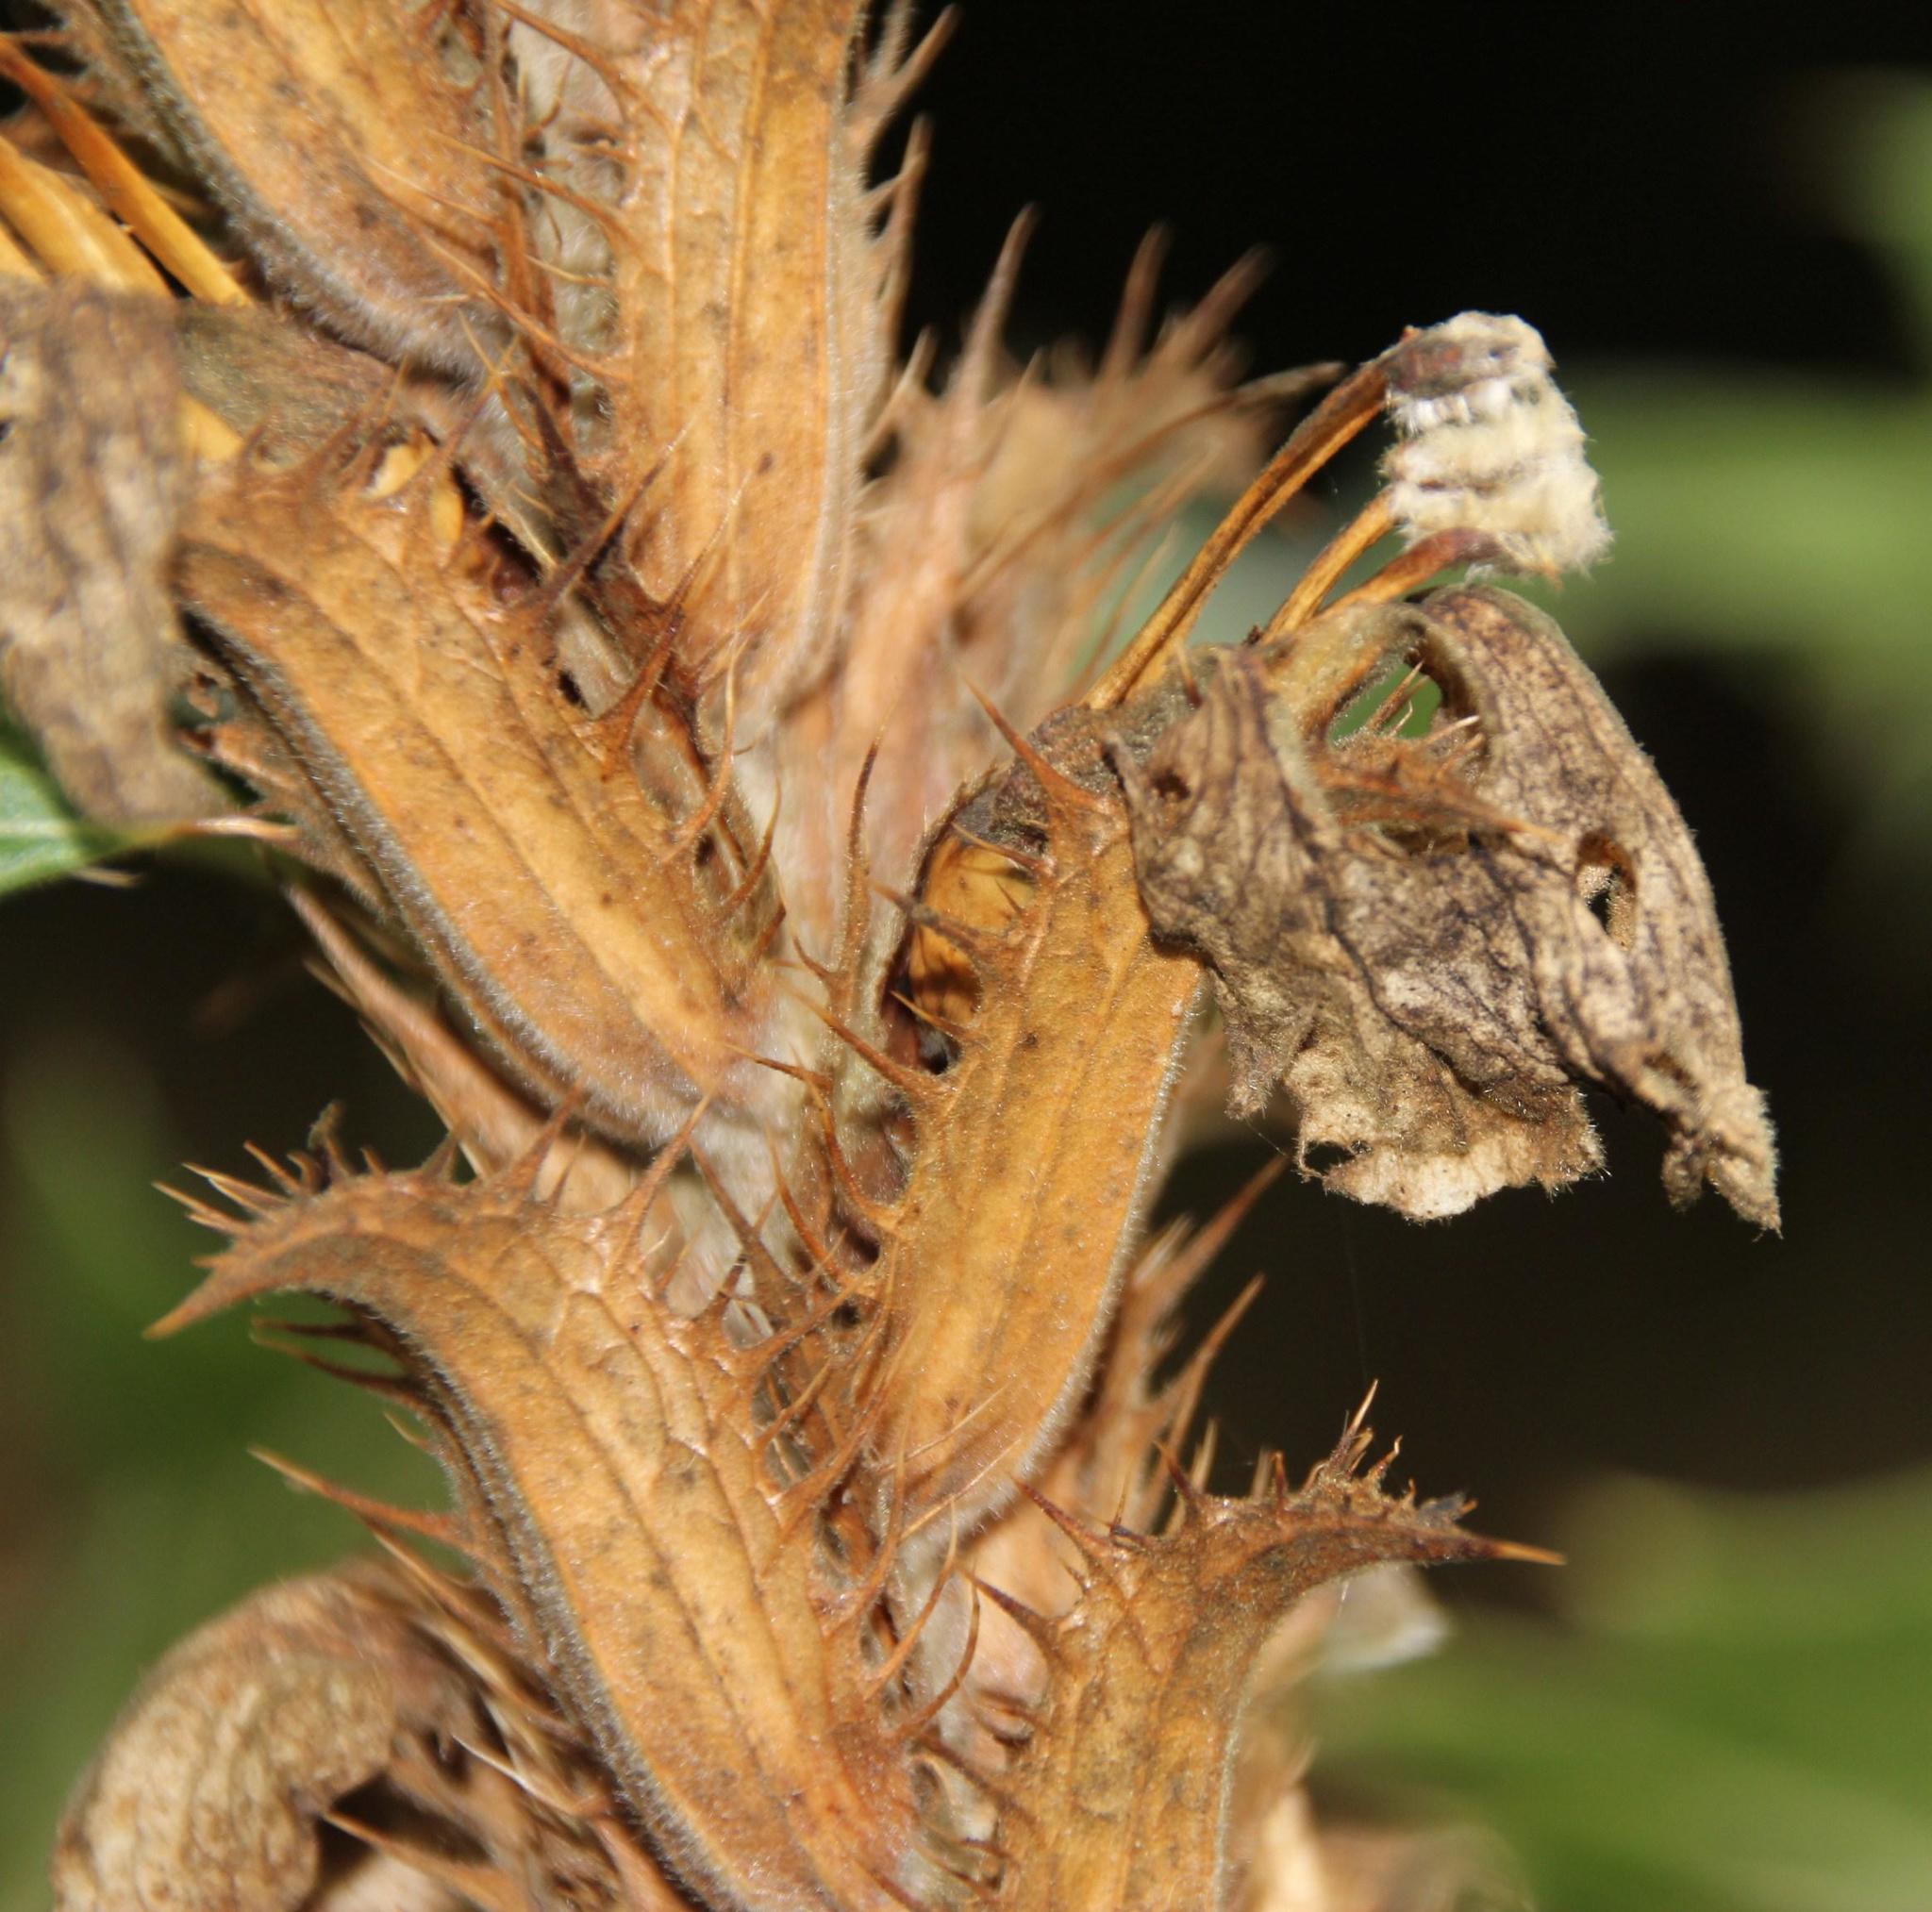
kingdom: Plantae
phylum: Tracheophyta
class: Magnoliopsida
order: Lamiales
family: Acanthaceae
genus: Acanthus
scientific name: Acanthus polystachyus
